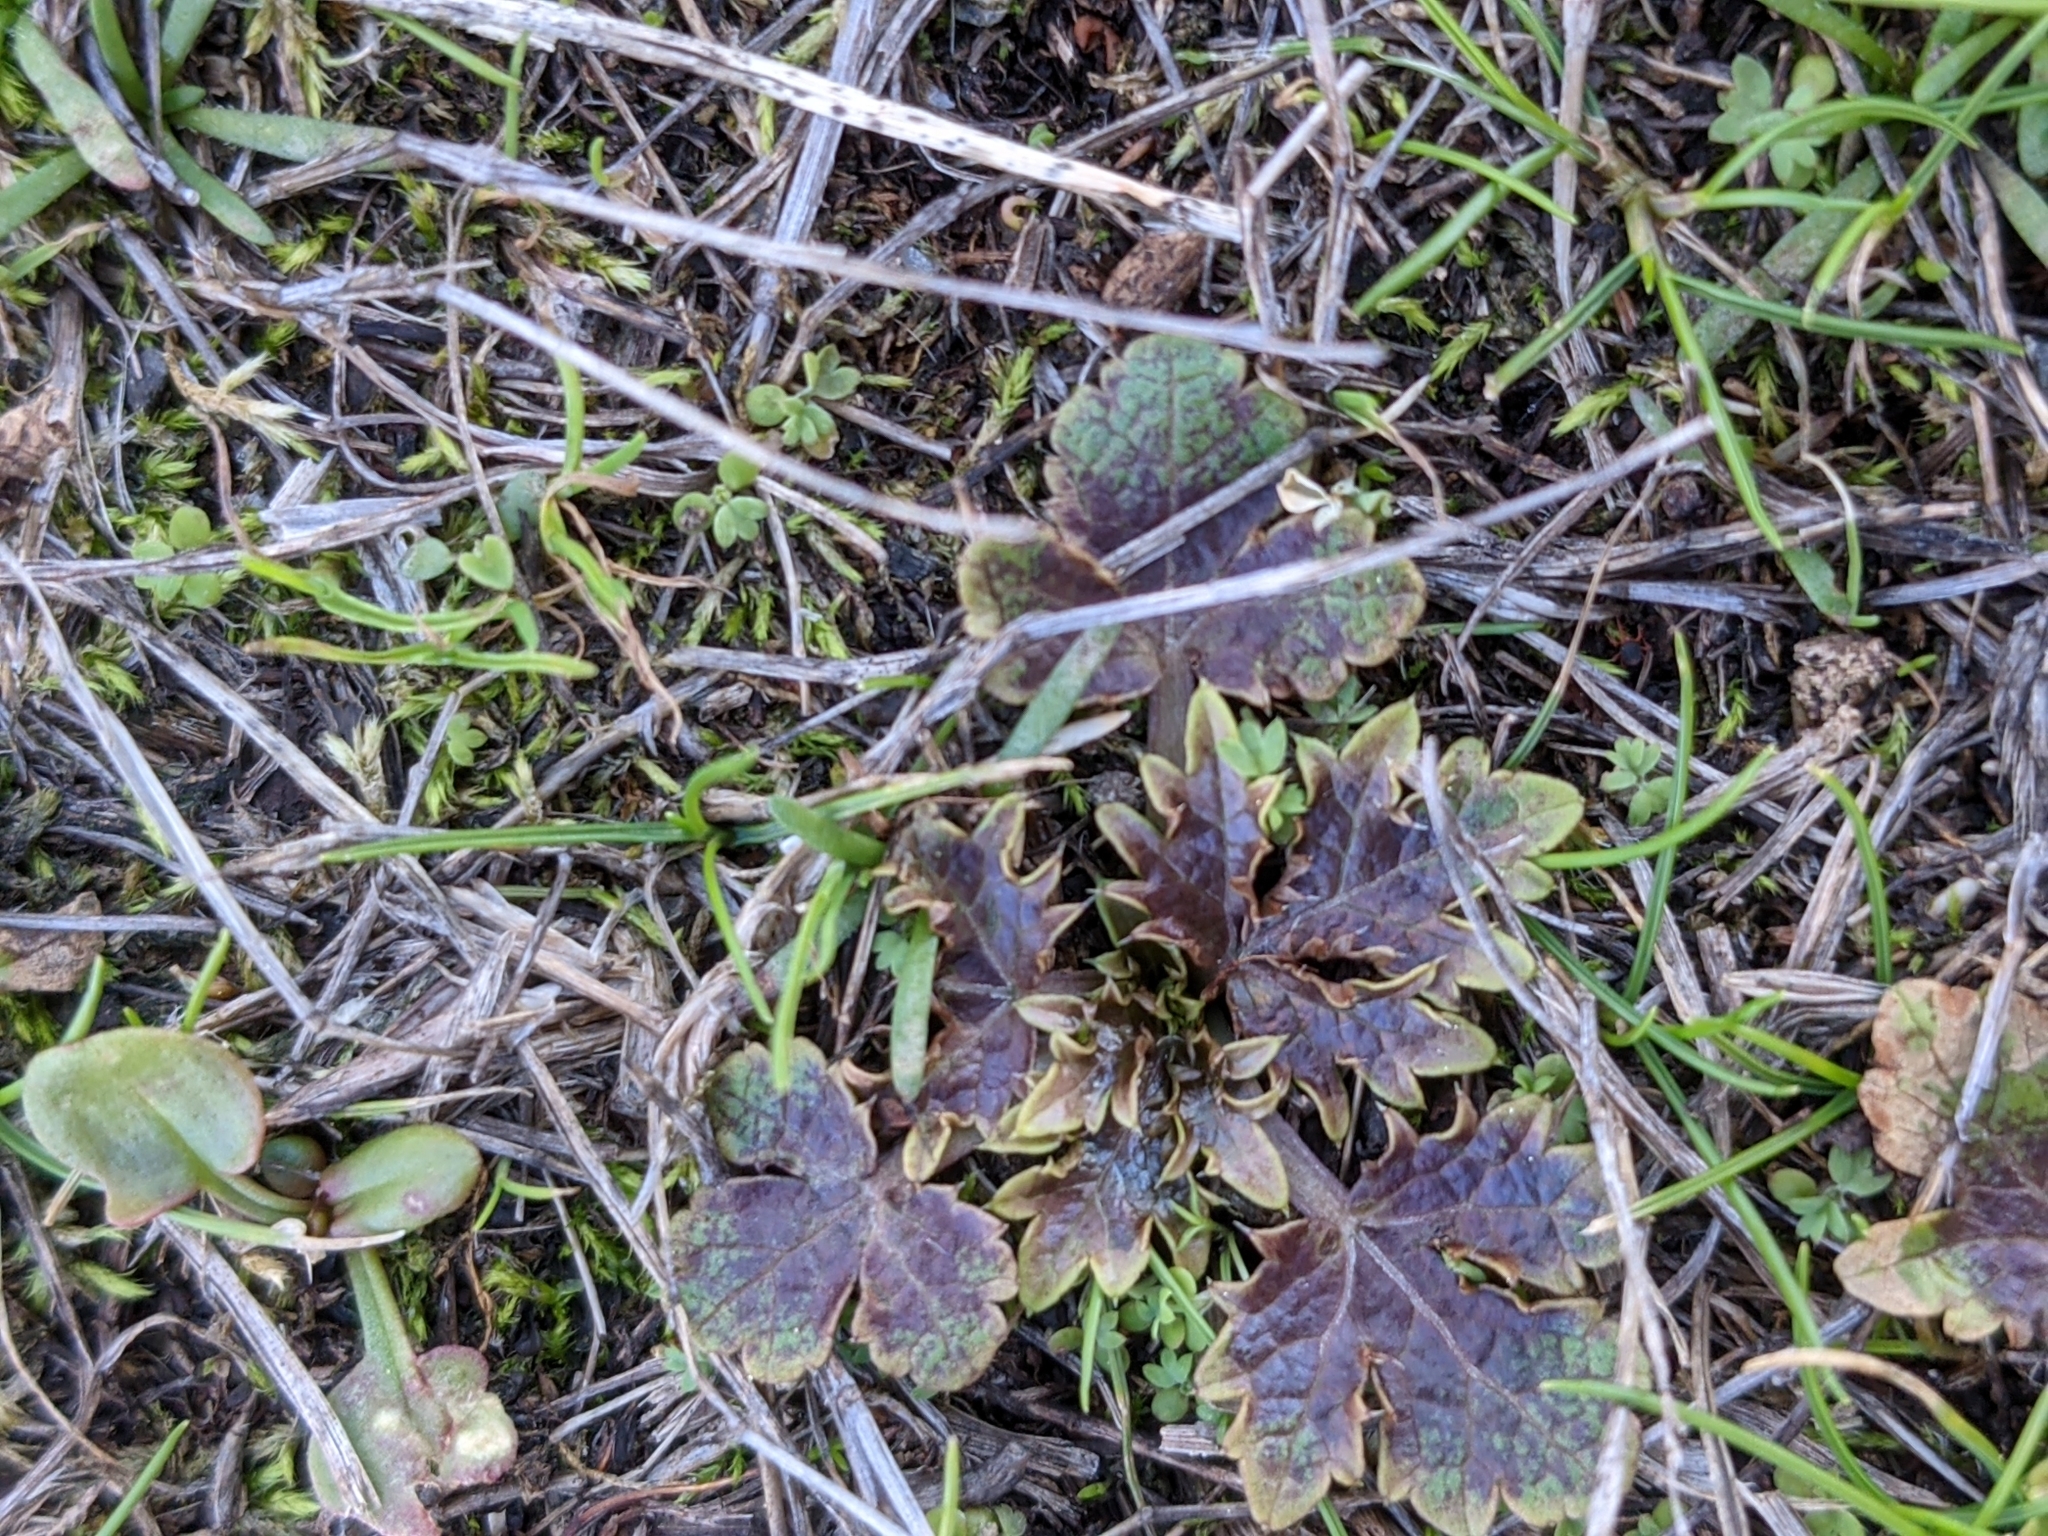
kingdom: Plantae
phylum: Tracheophyta
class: Magnoliopsida
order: Apiales
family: Apiaceae
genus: Sanicula
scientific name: Sanicula arctopoides
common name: Footsteps-of-spring
